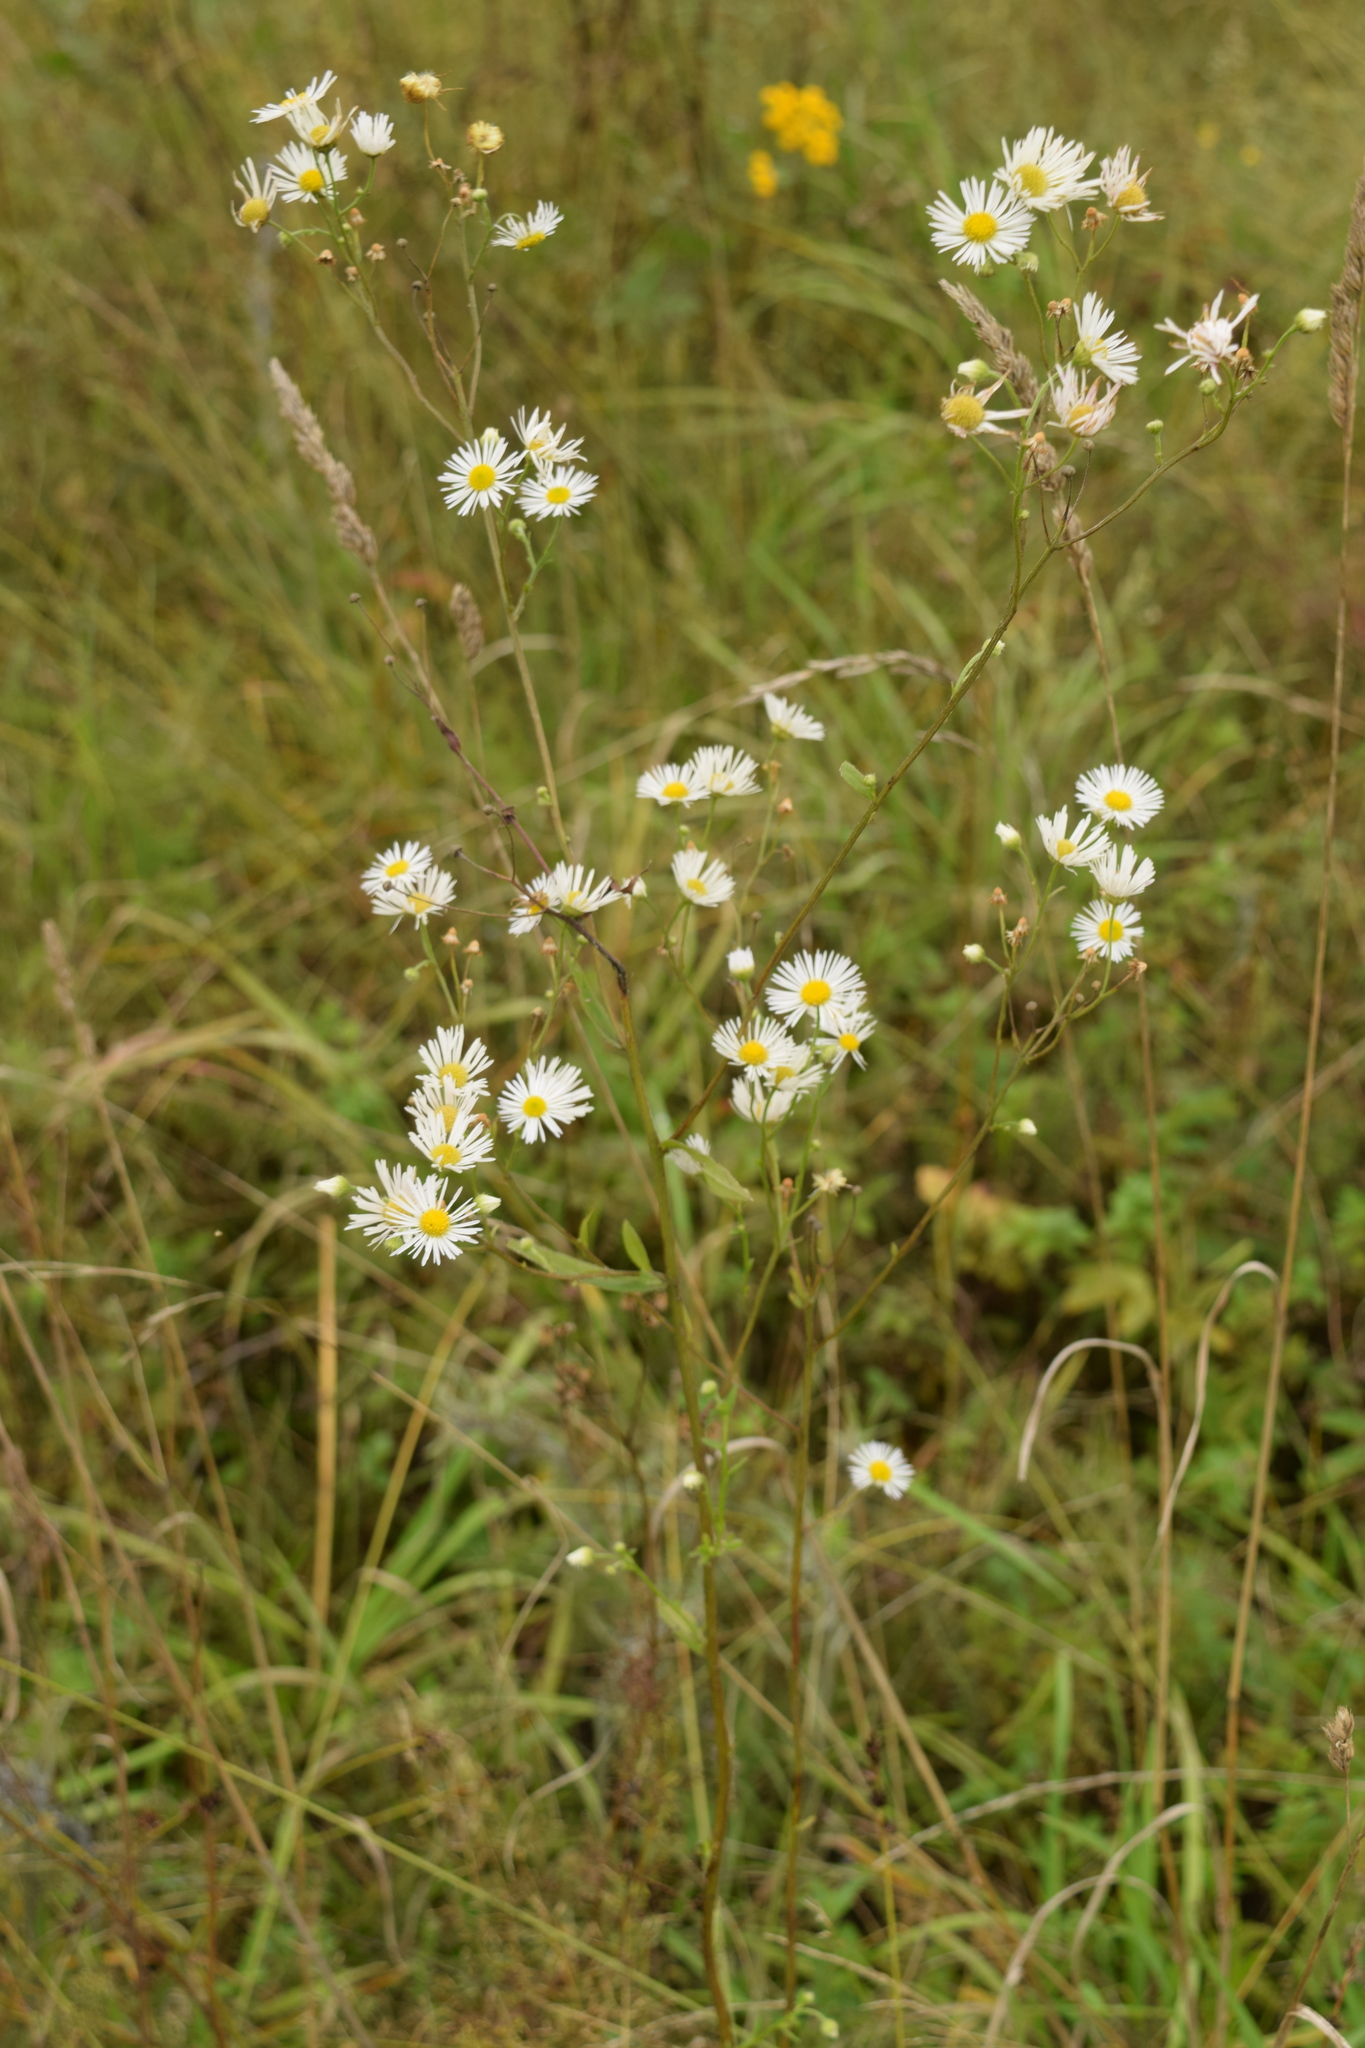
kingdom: Plantae
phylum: Tracheophyta
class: Magnoliopsida
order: Asterales
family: Asteraceae
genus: Erigeron
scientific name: Erigeron annuus
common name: Tall fleabane
